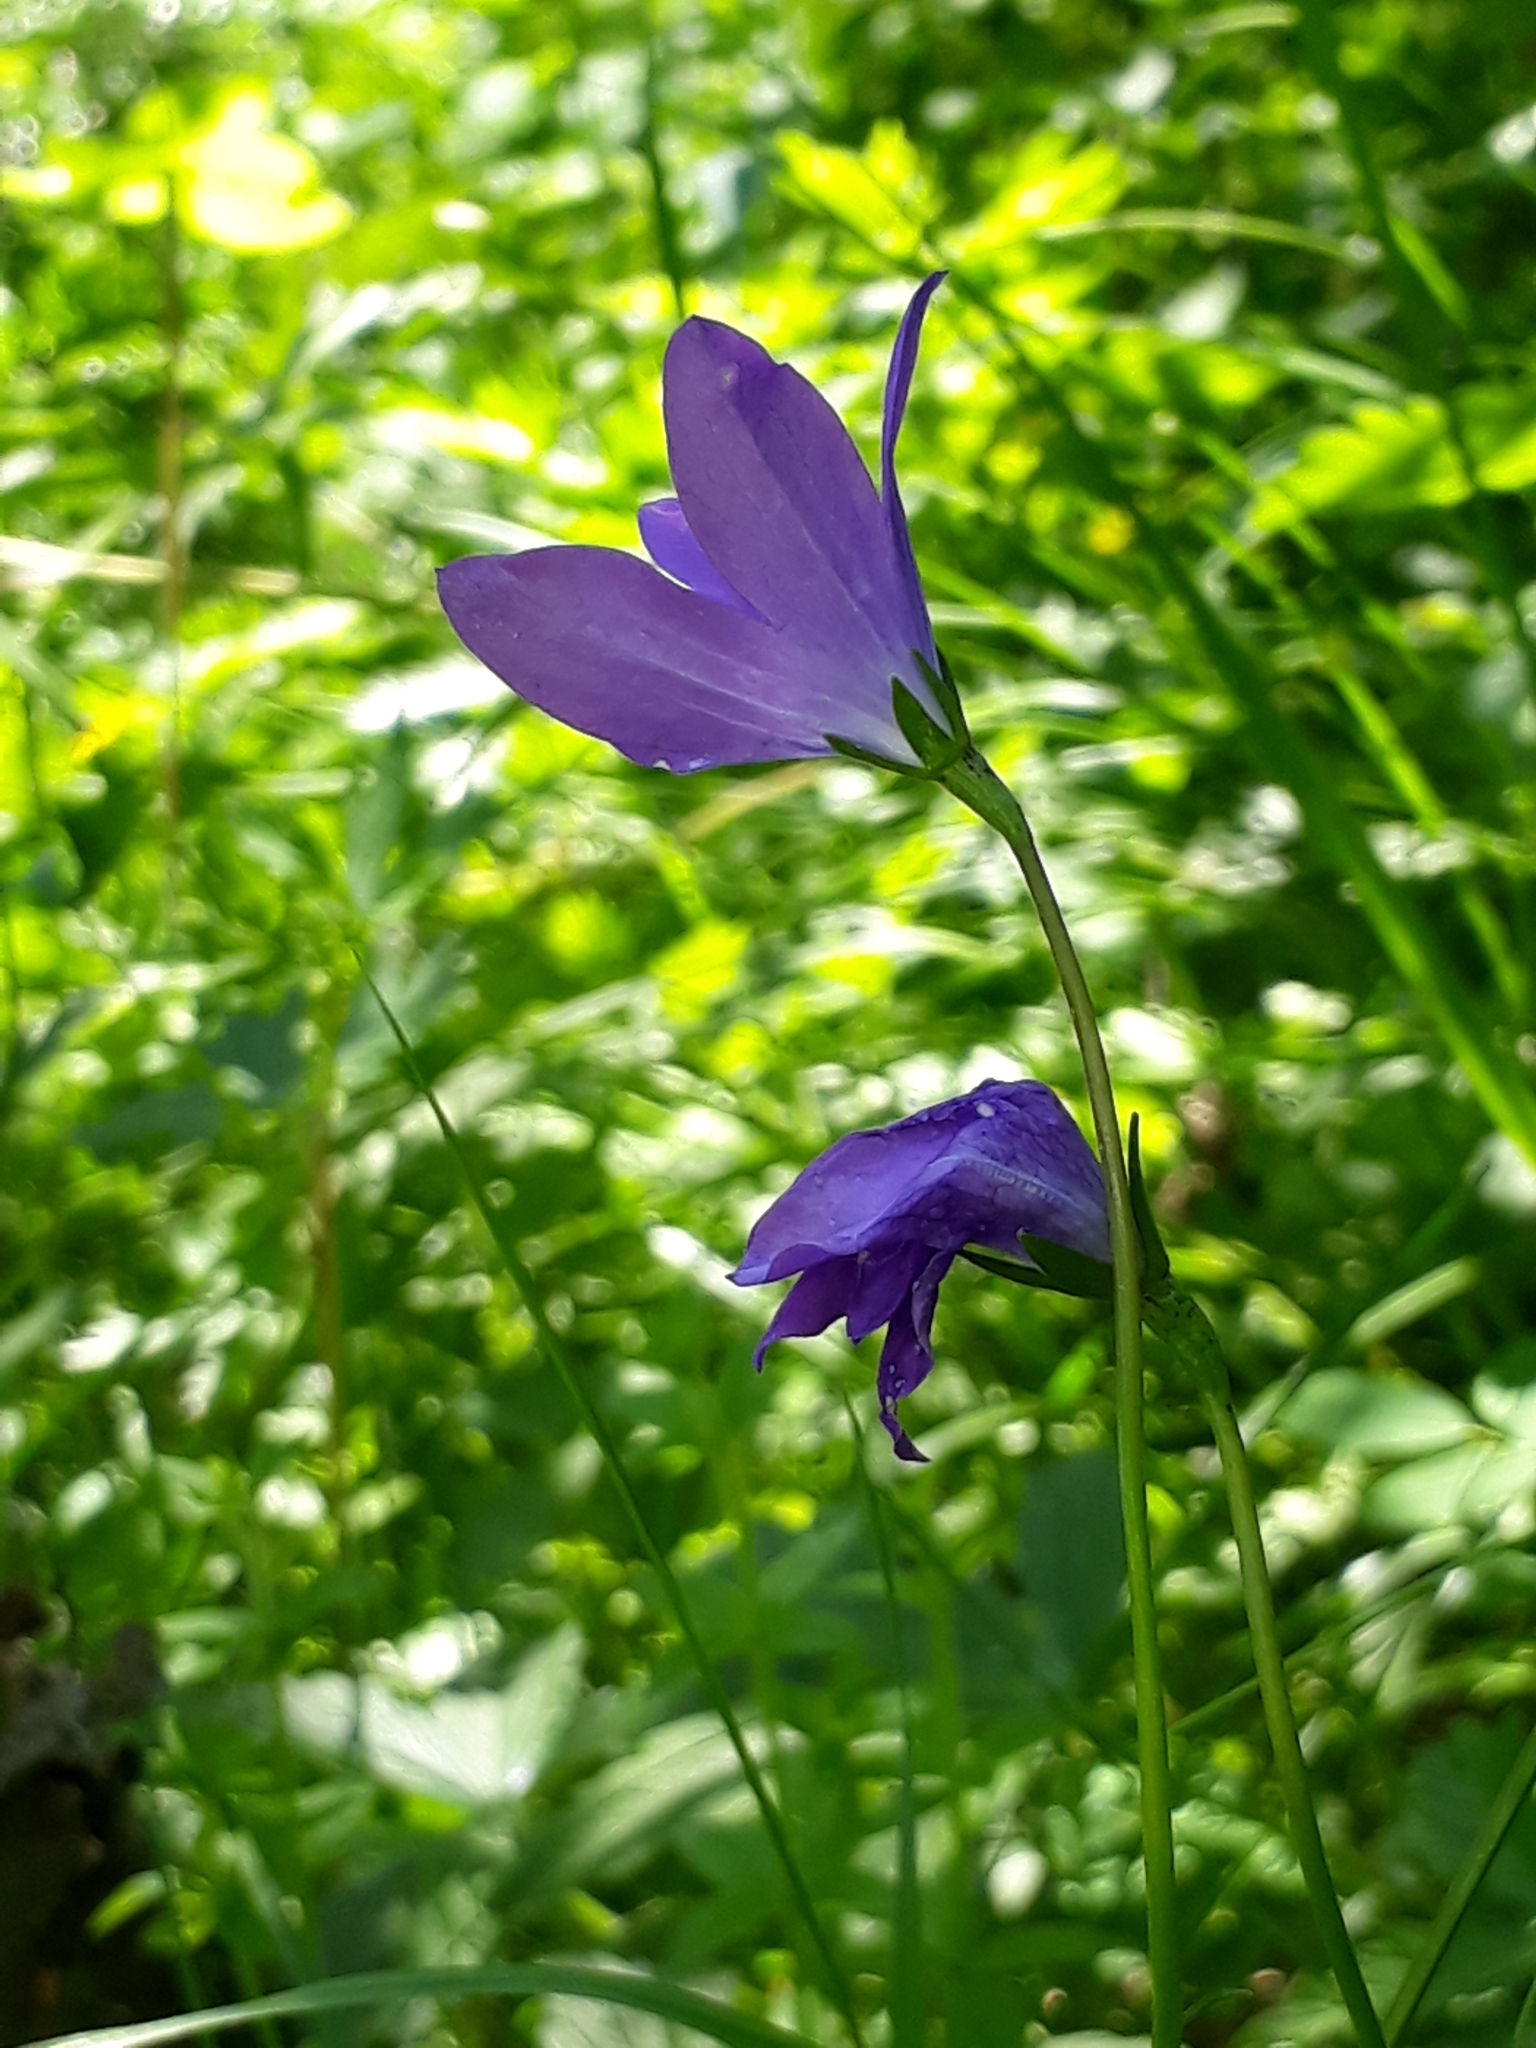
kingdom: Plantae
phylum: Tracheophyta
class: Magnoliopsida
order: Asterales
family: Campanulaceae
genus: Campanula
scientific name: Campanula stevenii
